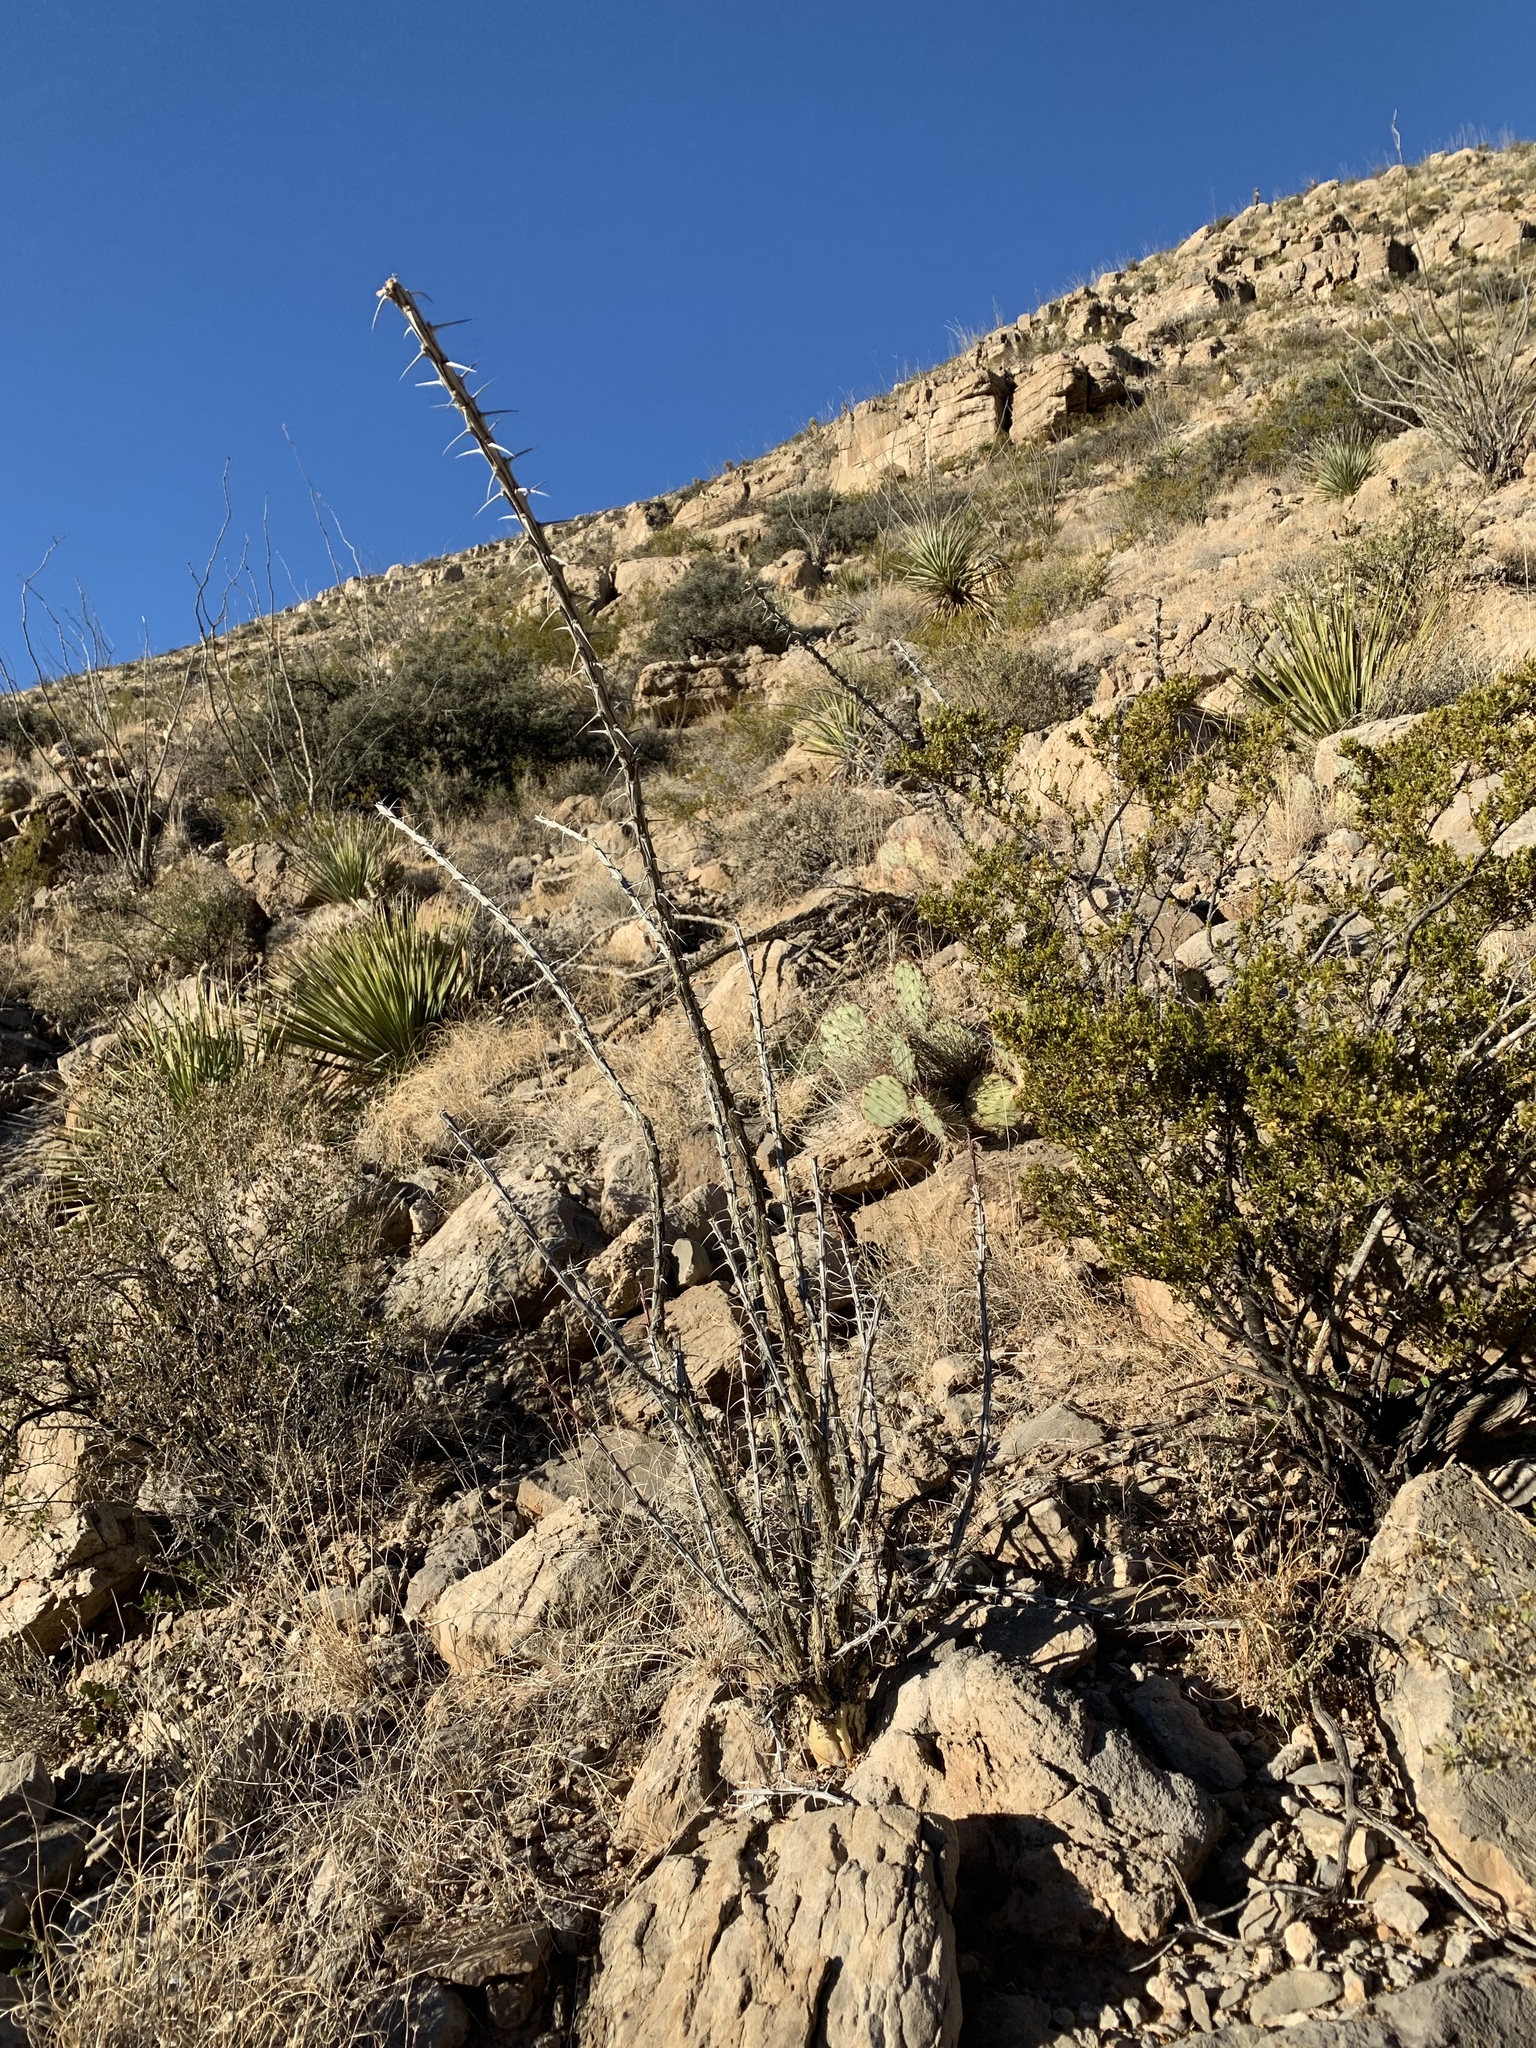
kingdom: Plantae
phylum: Tracheophyta
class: Magnoliopsida
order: Ericales
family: Fouquieriaceae
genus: Fouquieria
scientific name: Fouquieria splendens
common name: Vine-cactus
